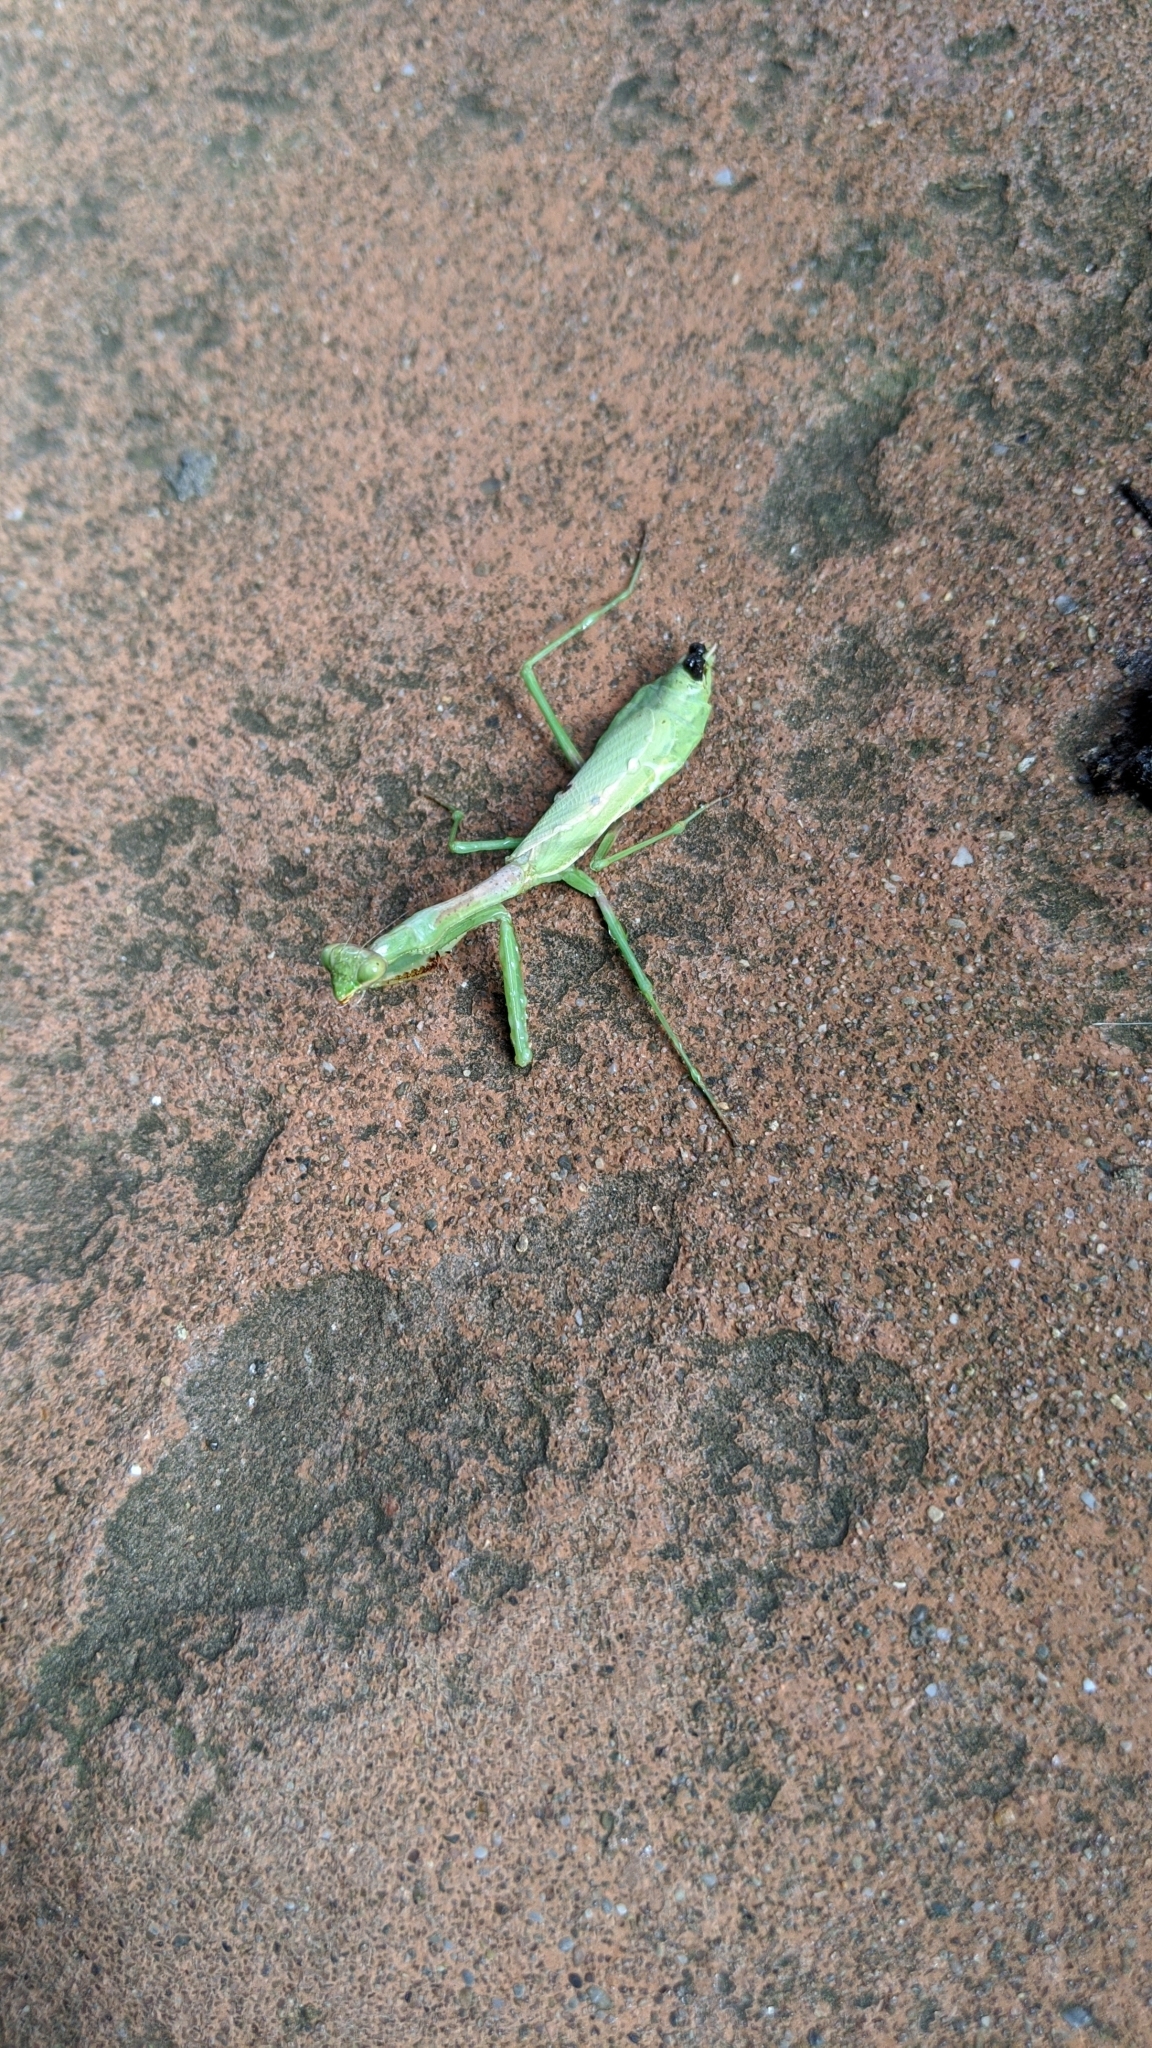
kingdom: Animalia
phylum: Arthropoda
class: Insecta
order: Mantodea
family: Mantidae
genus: Stagmomantis
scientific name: Stagmomantis carolina
